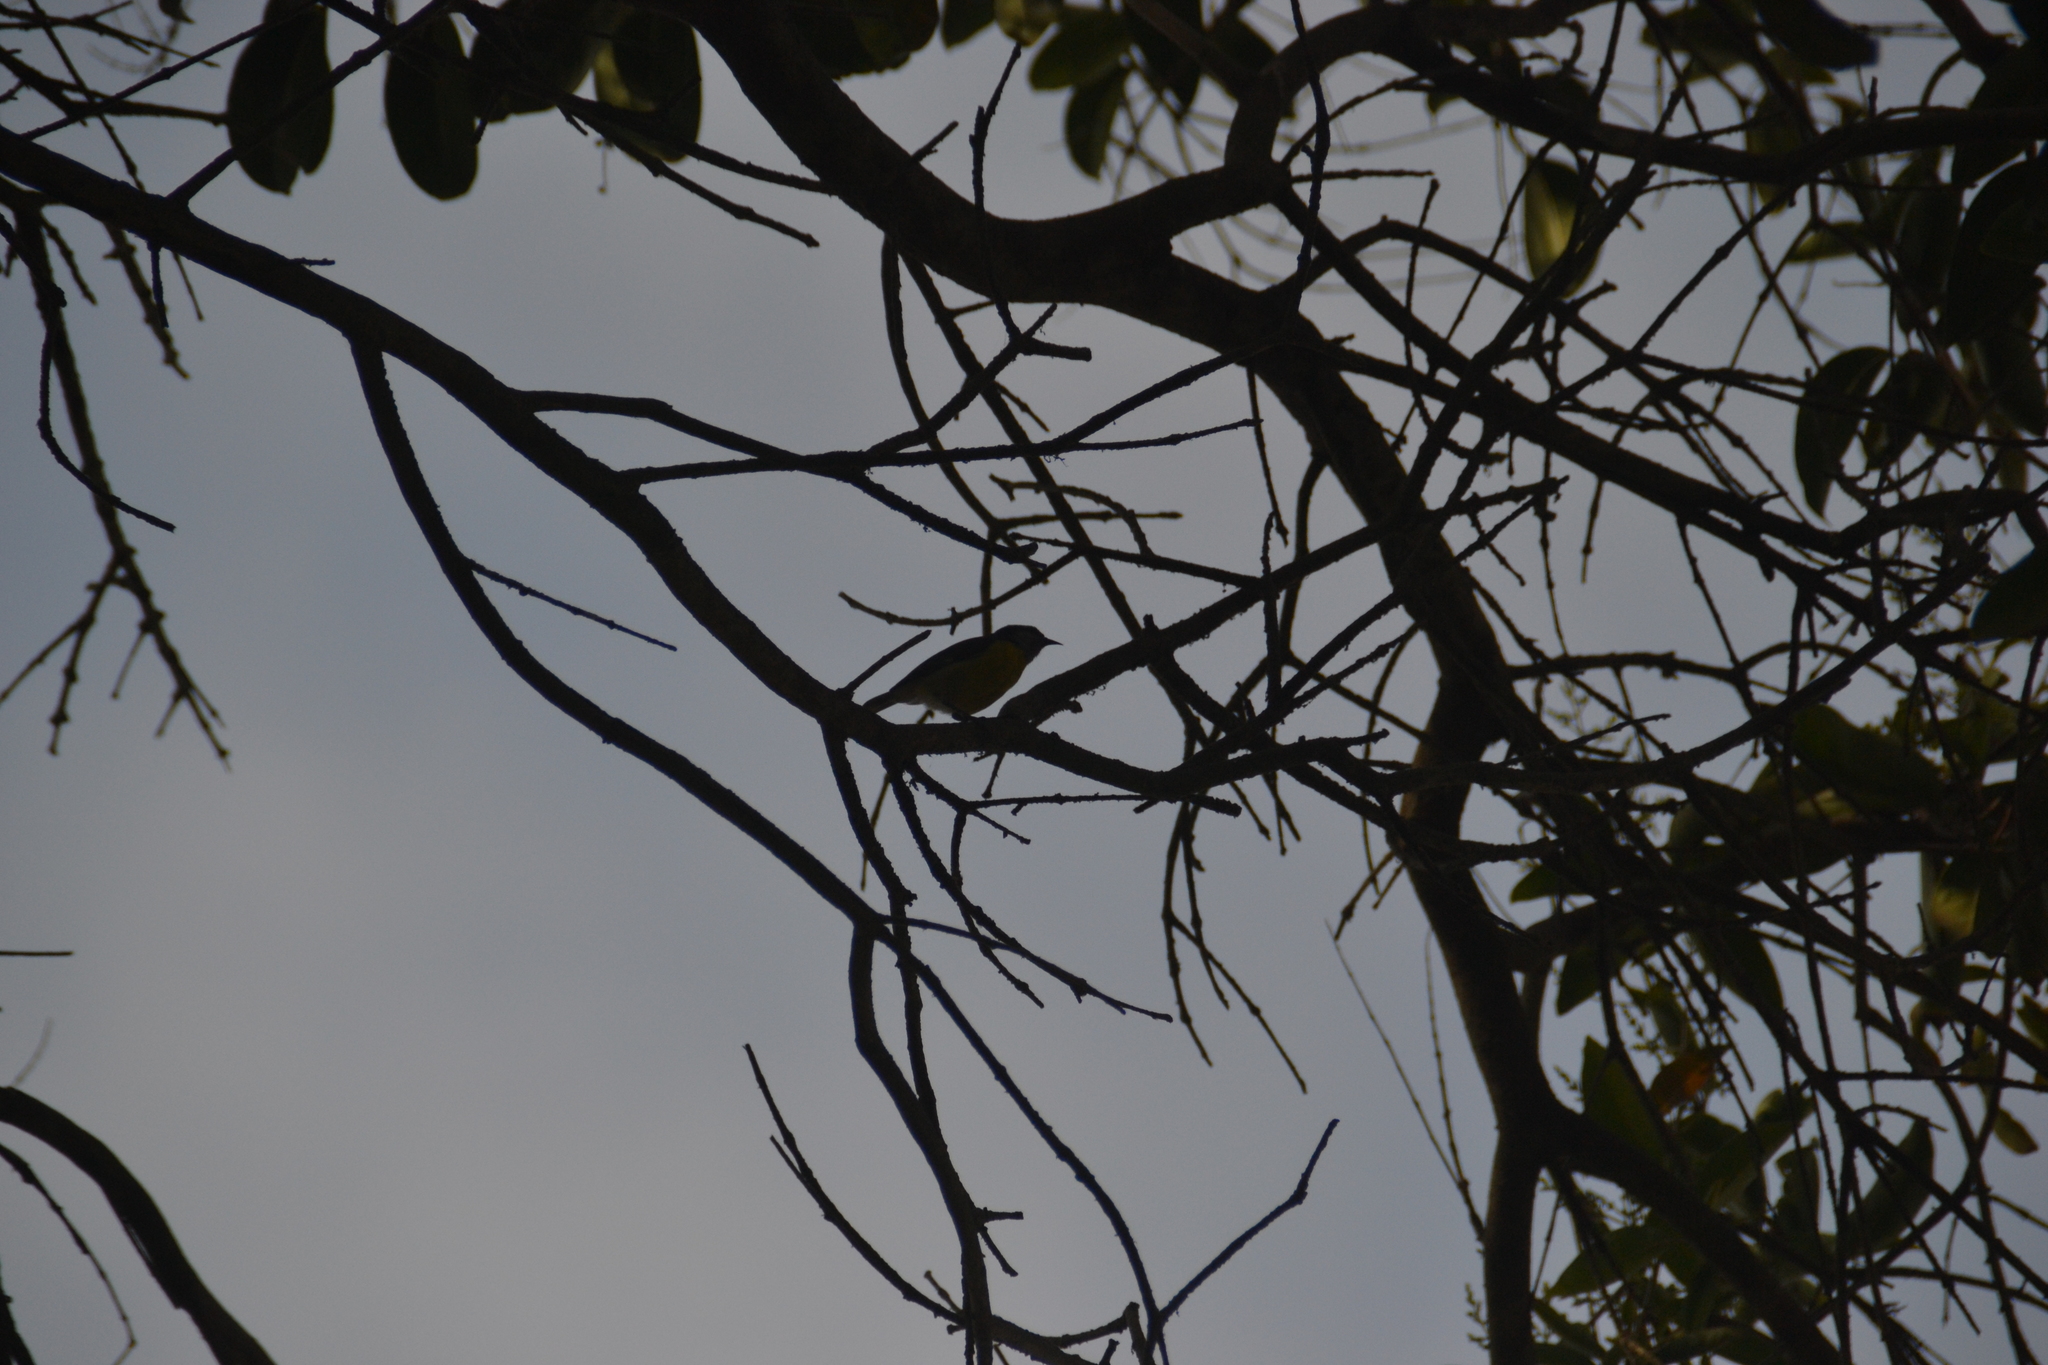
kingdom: Animalia
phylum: Chordata
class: Aves
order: Passeriformes
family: Thraupidae
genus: Coereba
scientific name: Coereba flaveola
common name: Bananaquit
